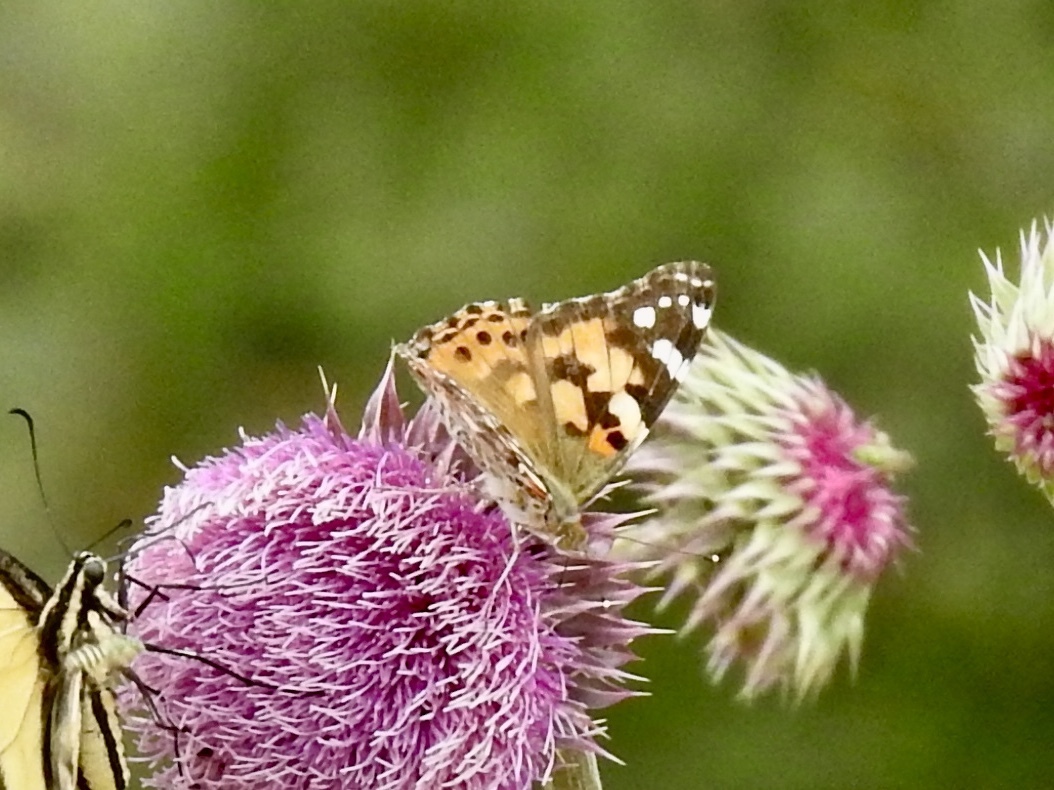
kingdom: Animalia
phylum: Arthropoda
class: Insecta
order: Lepidoptera
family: Nymphalidae
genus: Vanessa
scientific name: Vanessa cardui
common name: Painted lady
